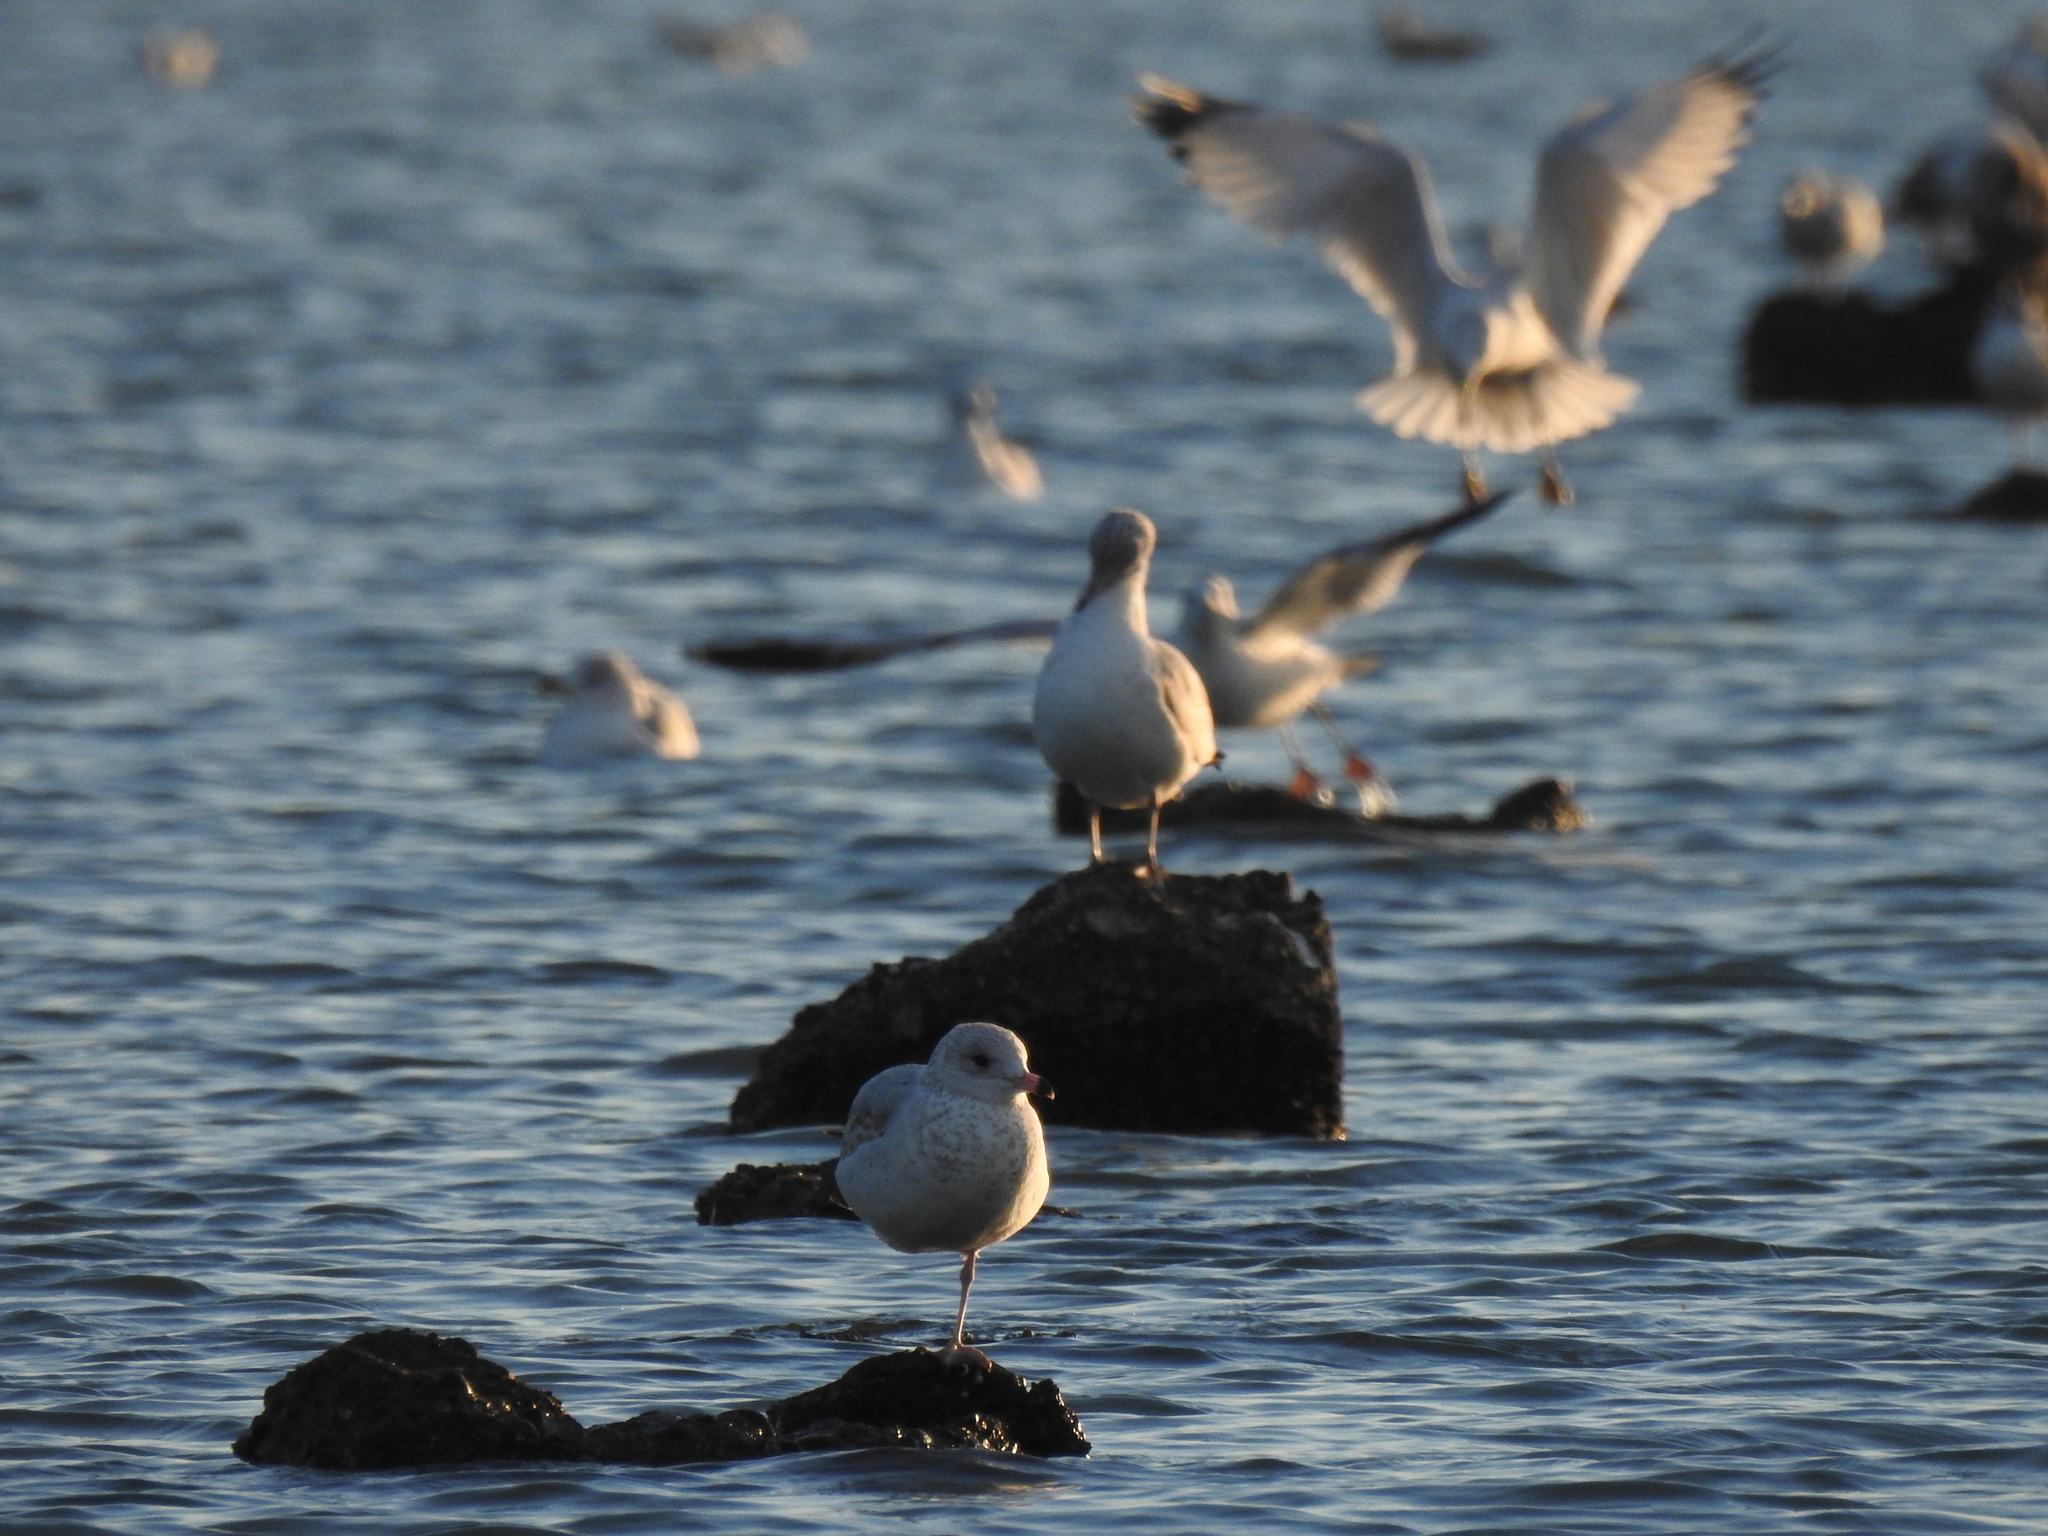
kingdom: Animalia
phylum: Chordata
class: Aves
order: Charadriiformes
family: Laridae
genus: Larus
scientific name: Larus delawarensis
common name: Ring-billed gull
